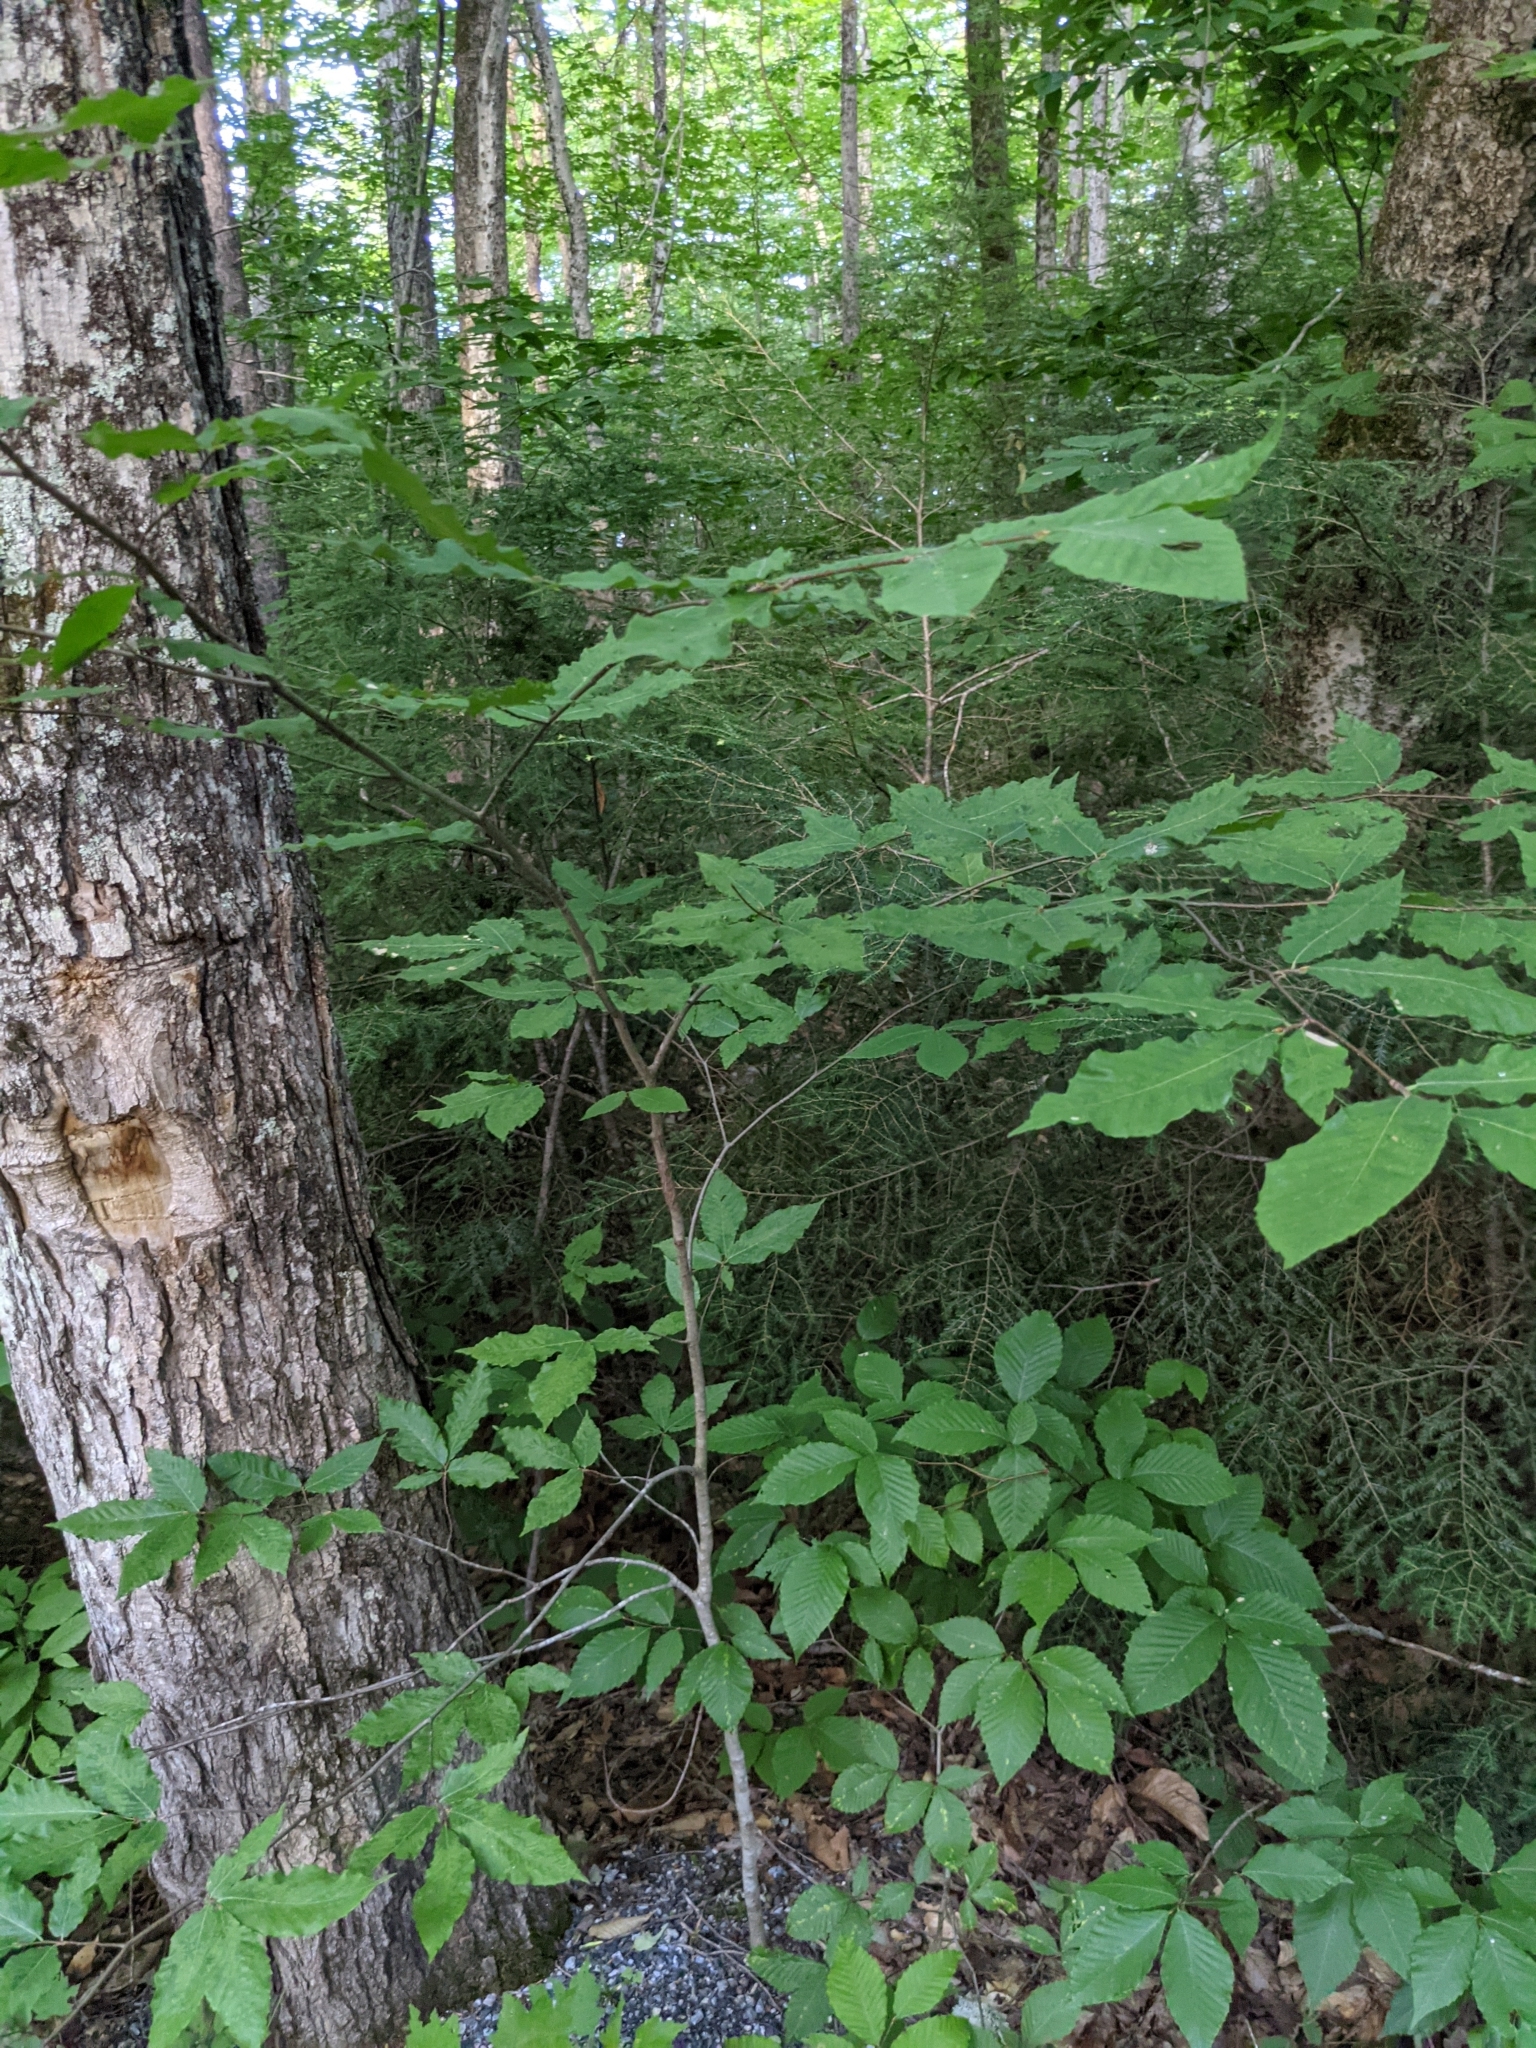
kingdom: Plantae
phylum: Tracheophyta
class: Magnoliopsida
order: Fagales
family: Fagaceae
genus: Fagus
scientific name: Fagus grandifolia
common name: American beech
